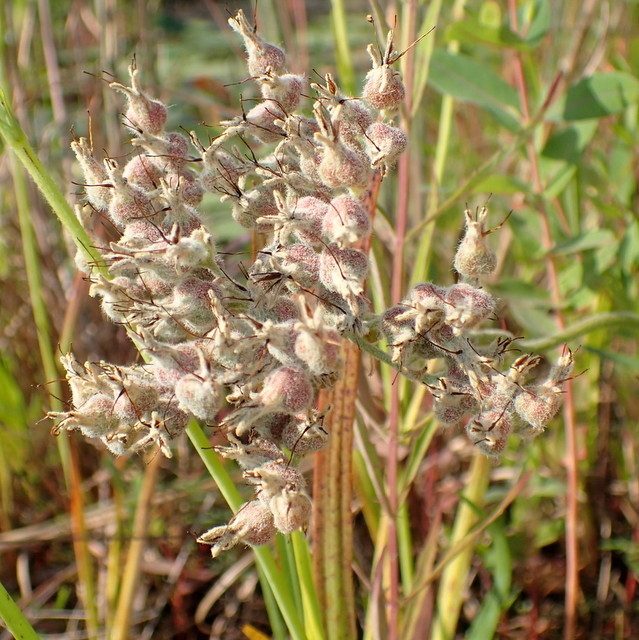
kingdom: Plantae
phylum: Tracheophyta
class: Liliopsida
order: Commelinales
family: Haemodoraceae
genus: Lachnanthes
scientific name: Lachnanthes caroliana
